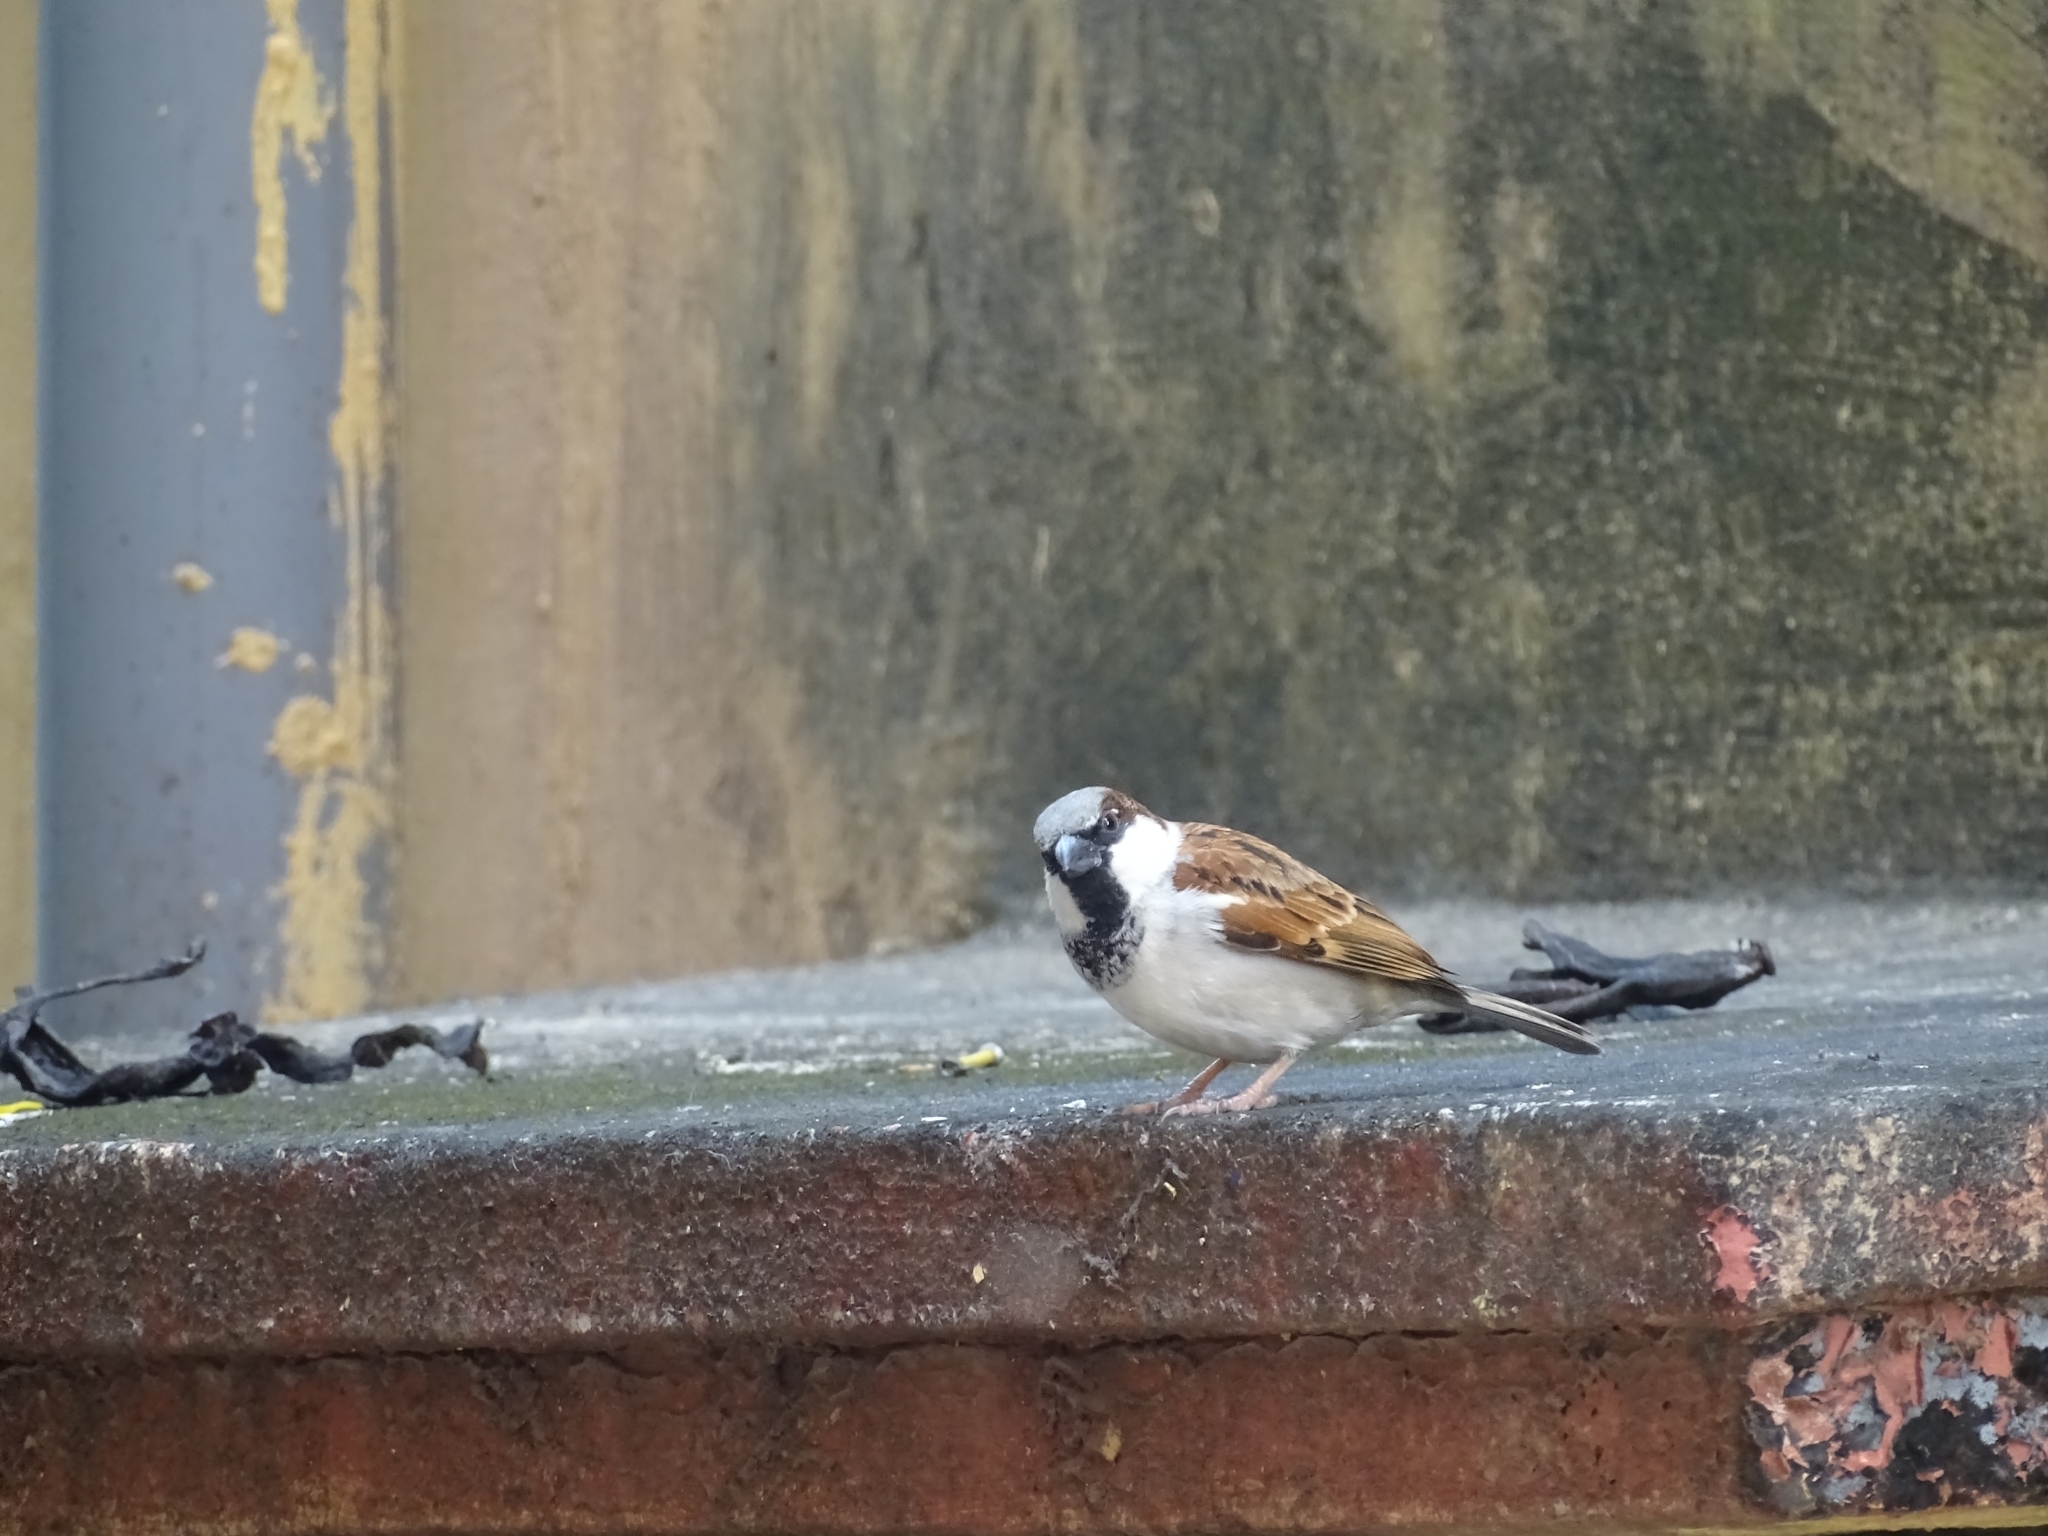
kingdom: Animalia
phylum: Chordata
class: Aves
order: Passeriformes
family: Passeridae
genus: Passer
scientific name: Passer domesticus
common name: House sparrow
